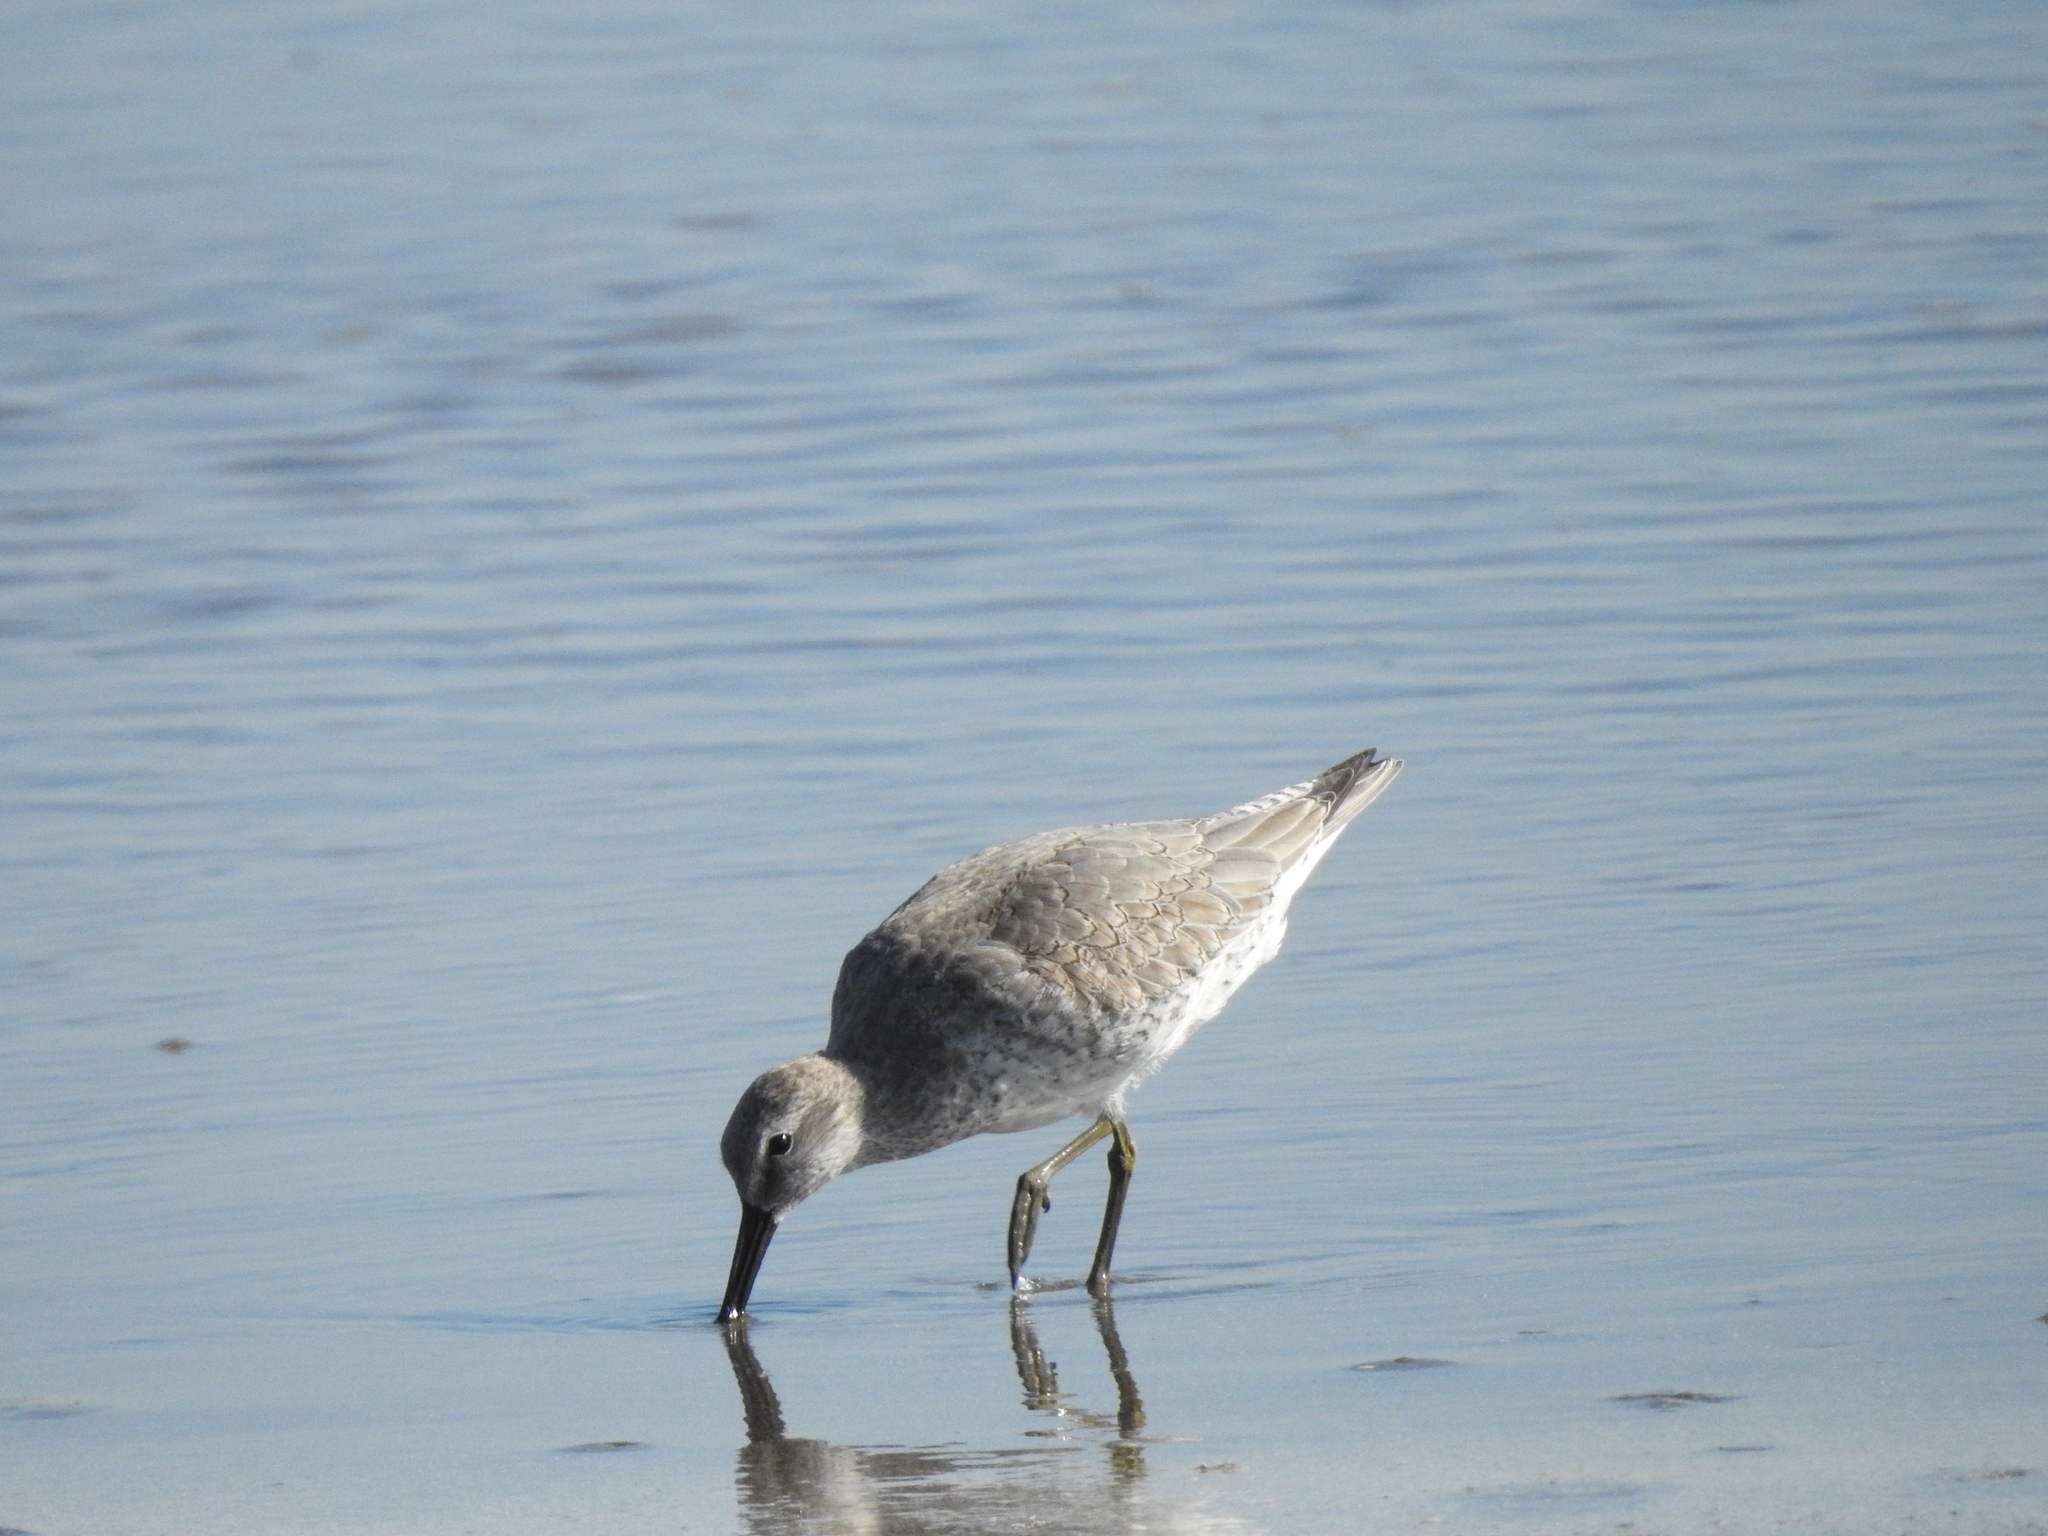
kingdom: Animalia
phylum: Chordata
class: Aves
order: Charadriiformes
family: Scolopacidae
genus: Calidris
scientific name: Calidris canutus
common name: Red knot
